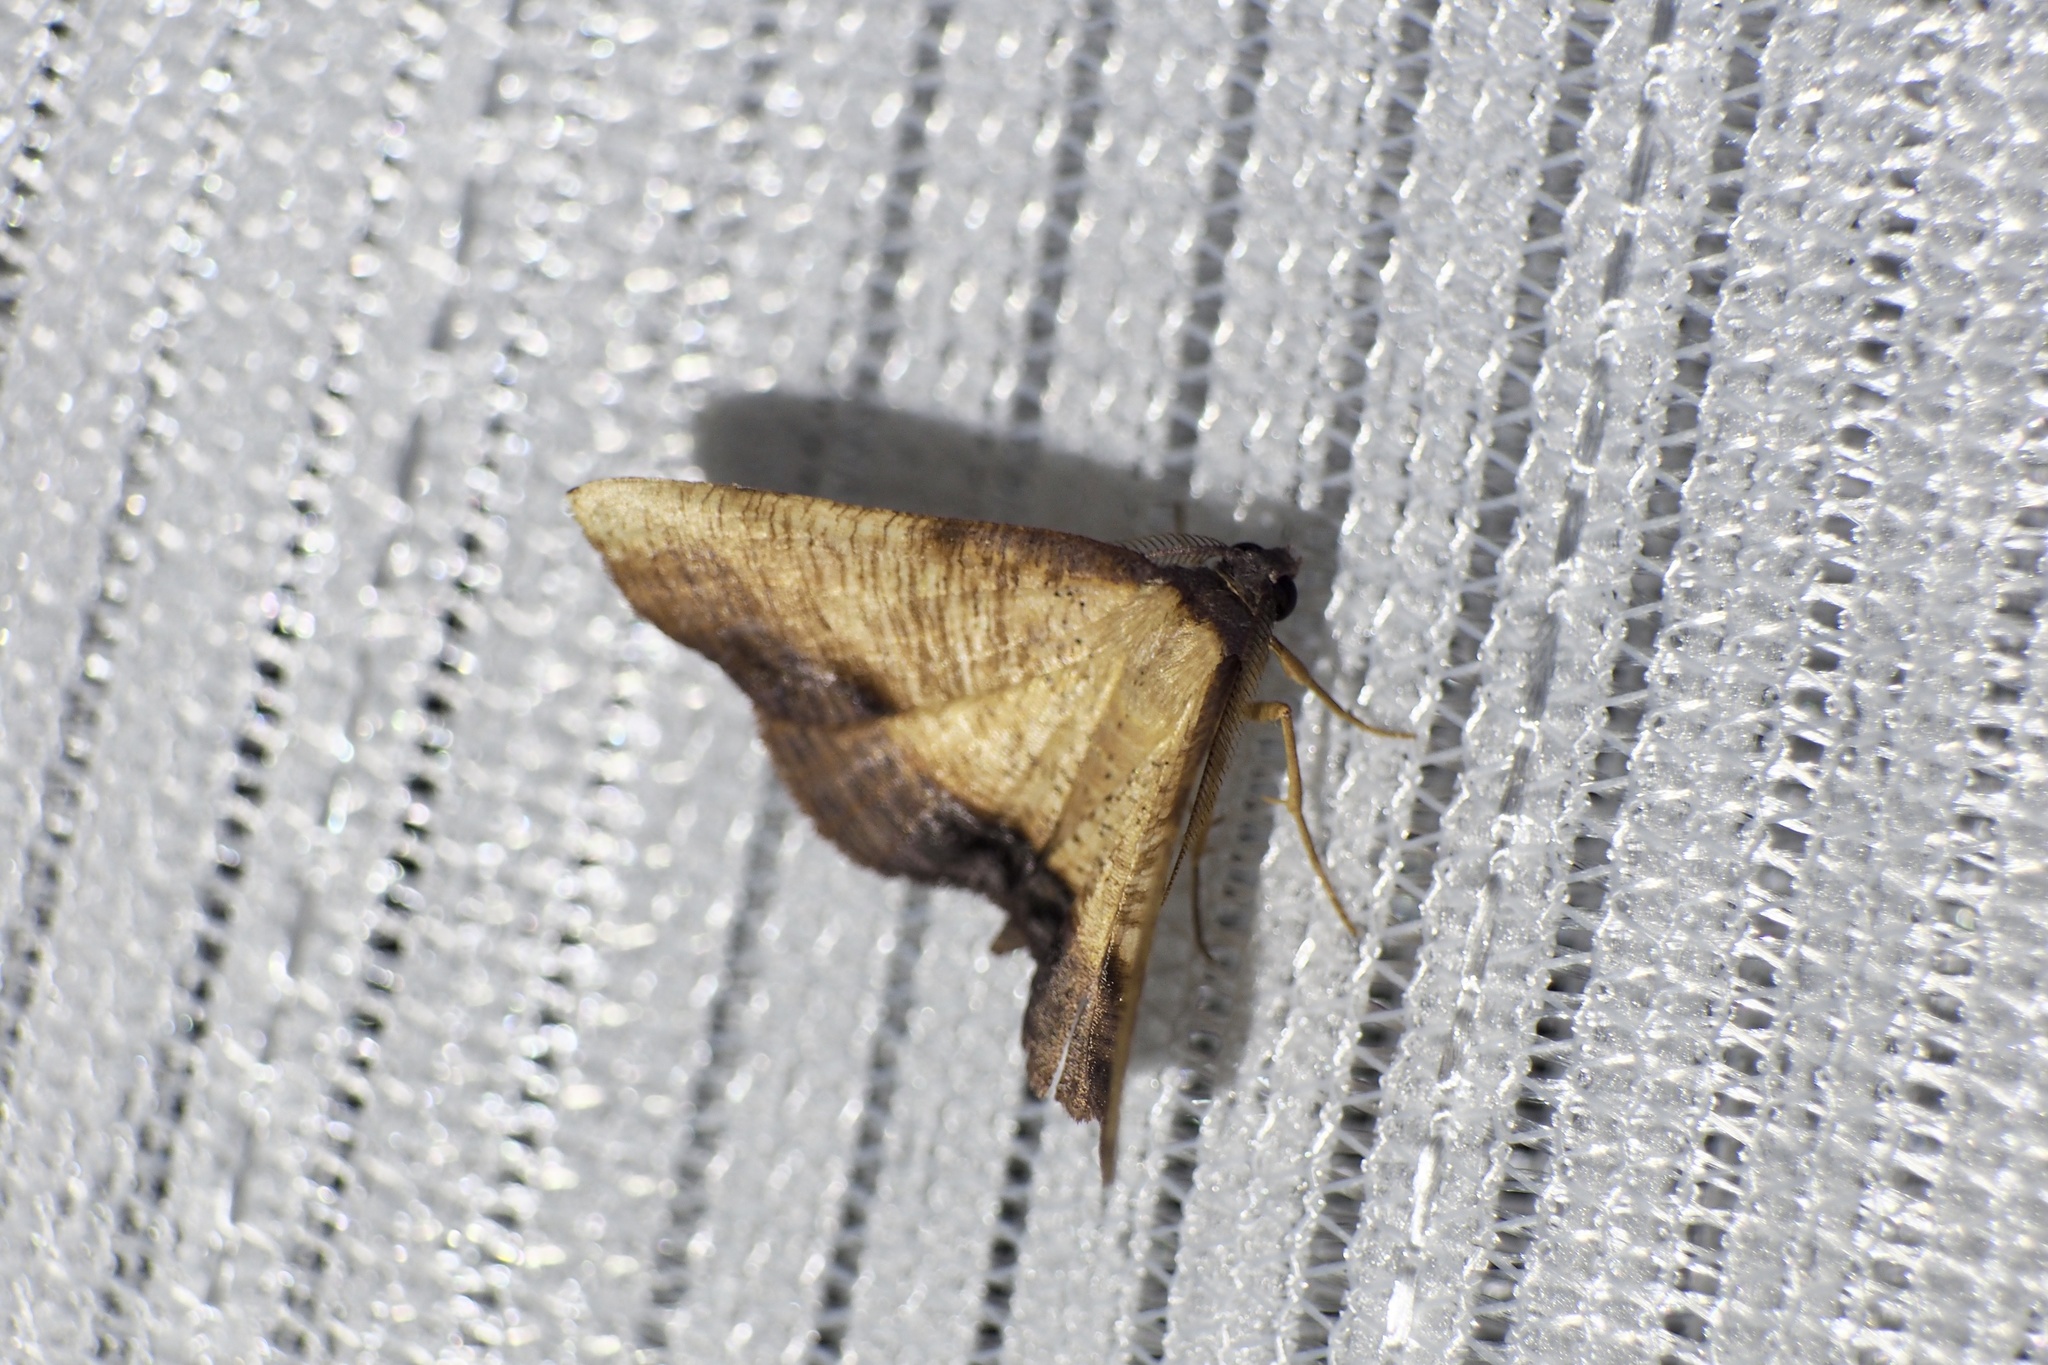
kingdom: Animalia
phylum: Arthropoda
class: Insecta
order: Lepidoptera
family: Geometridae
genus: Plagodis
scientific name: Plagodis dolabraria
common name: Scorched wing
